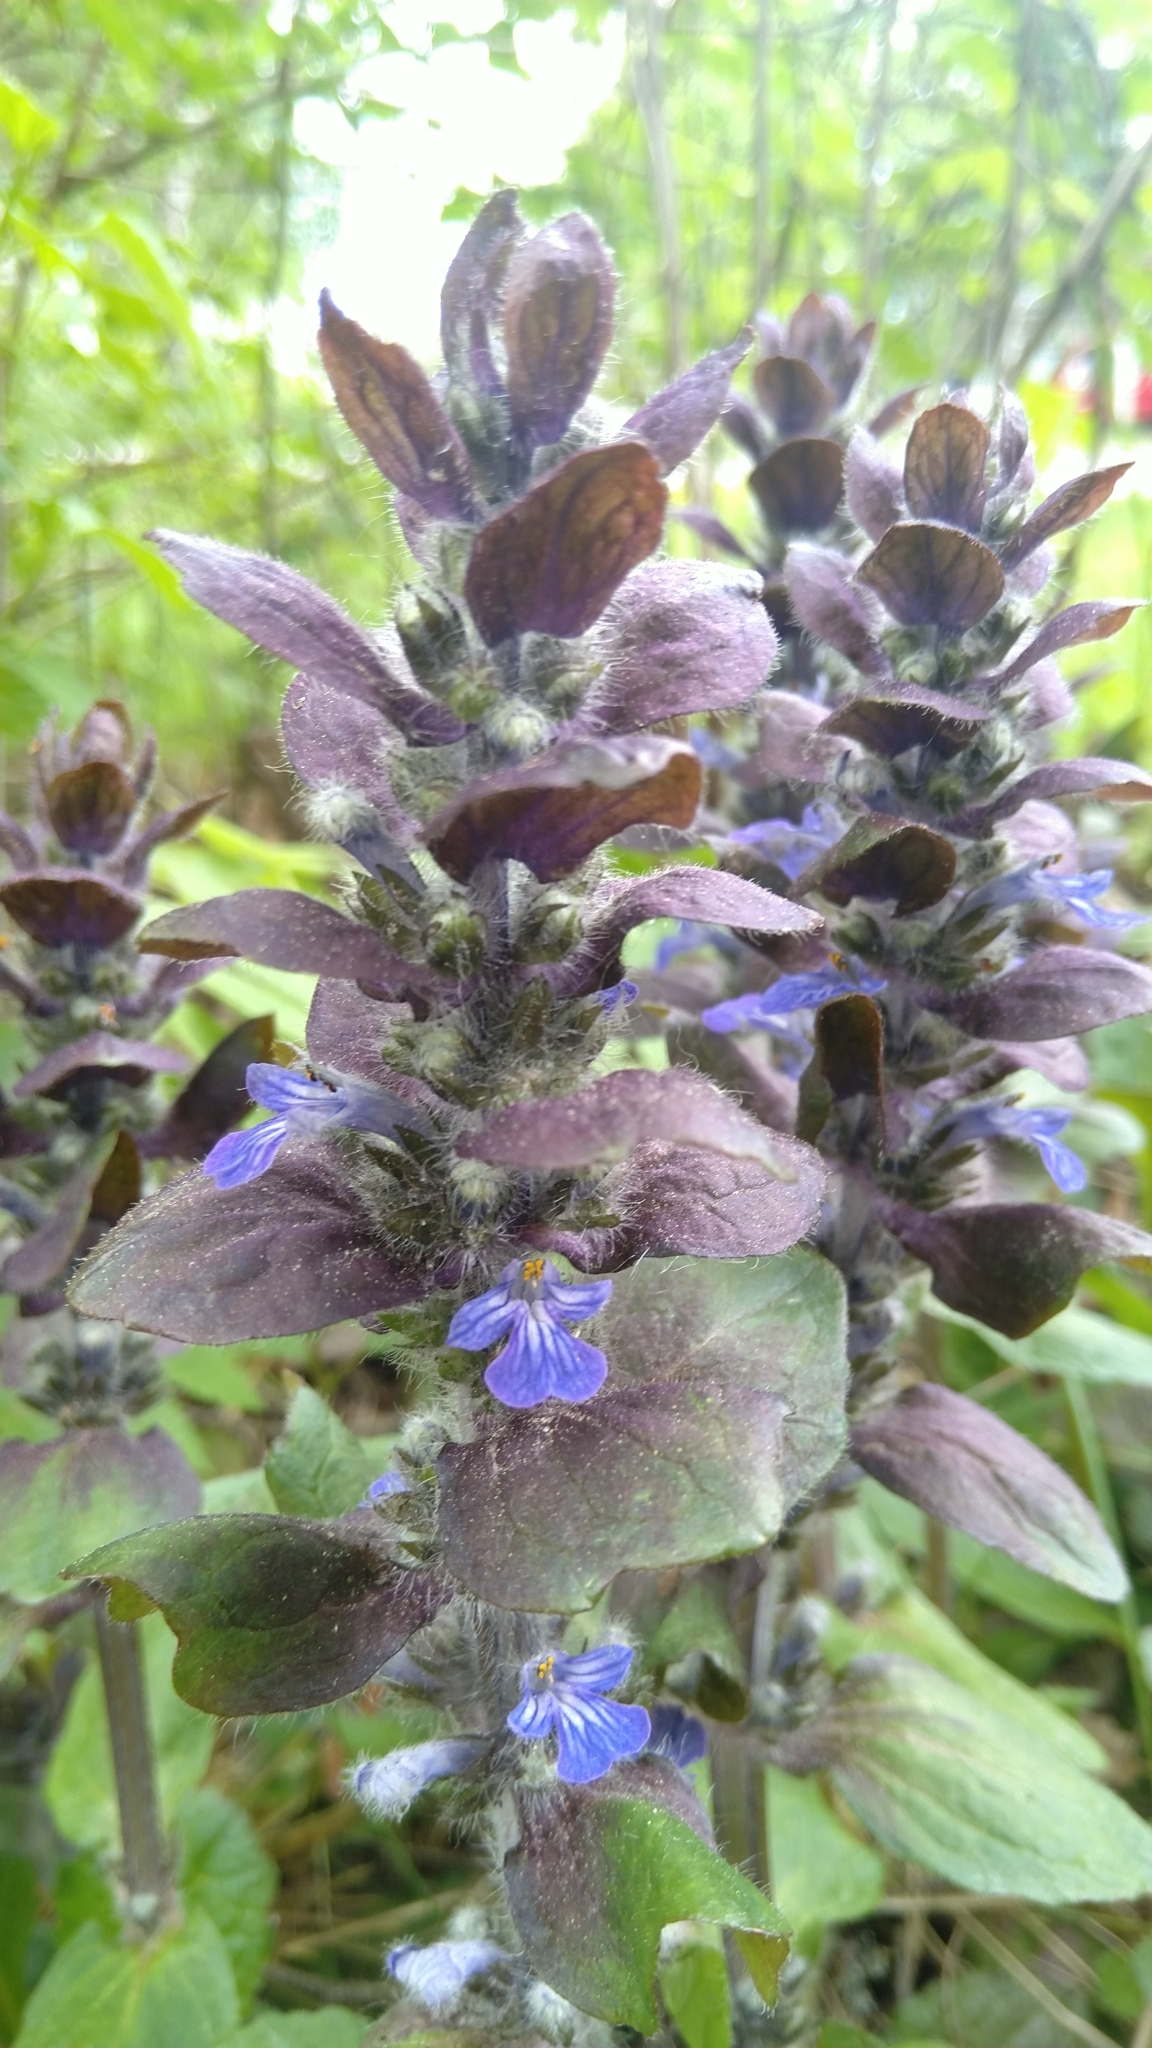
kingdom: Plantae
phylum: Tracheophyta
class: Magnoliopsida
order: Lamiales
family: Lamiaceae
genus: Ajuga
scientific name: Ajuga pyramidalis
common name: Pyramid bugle
